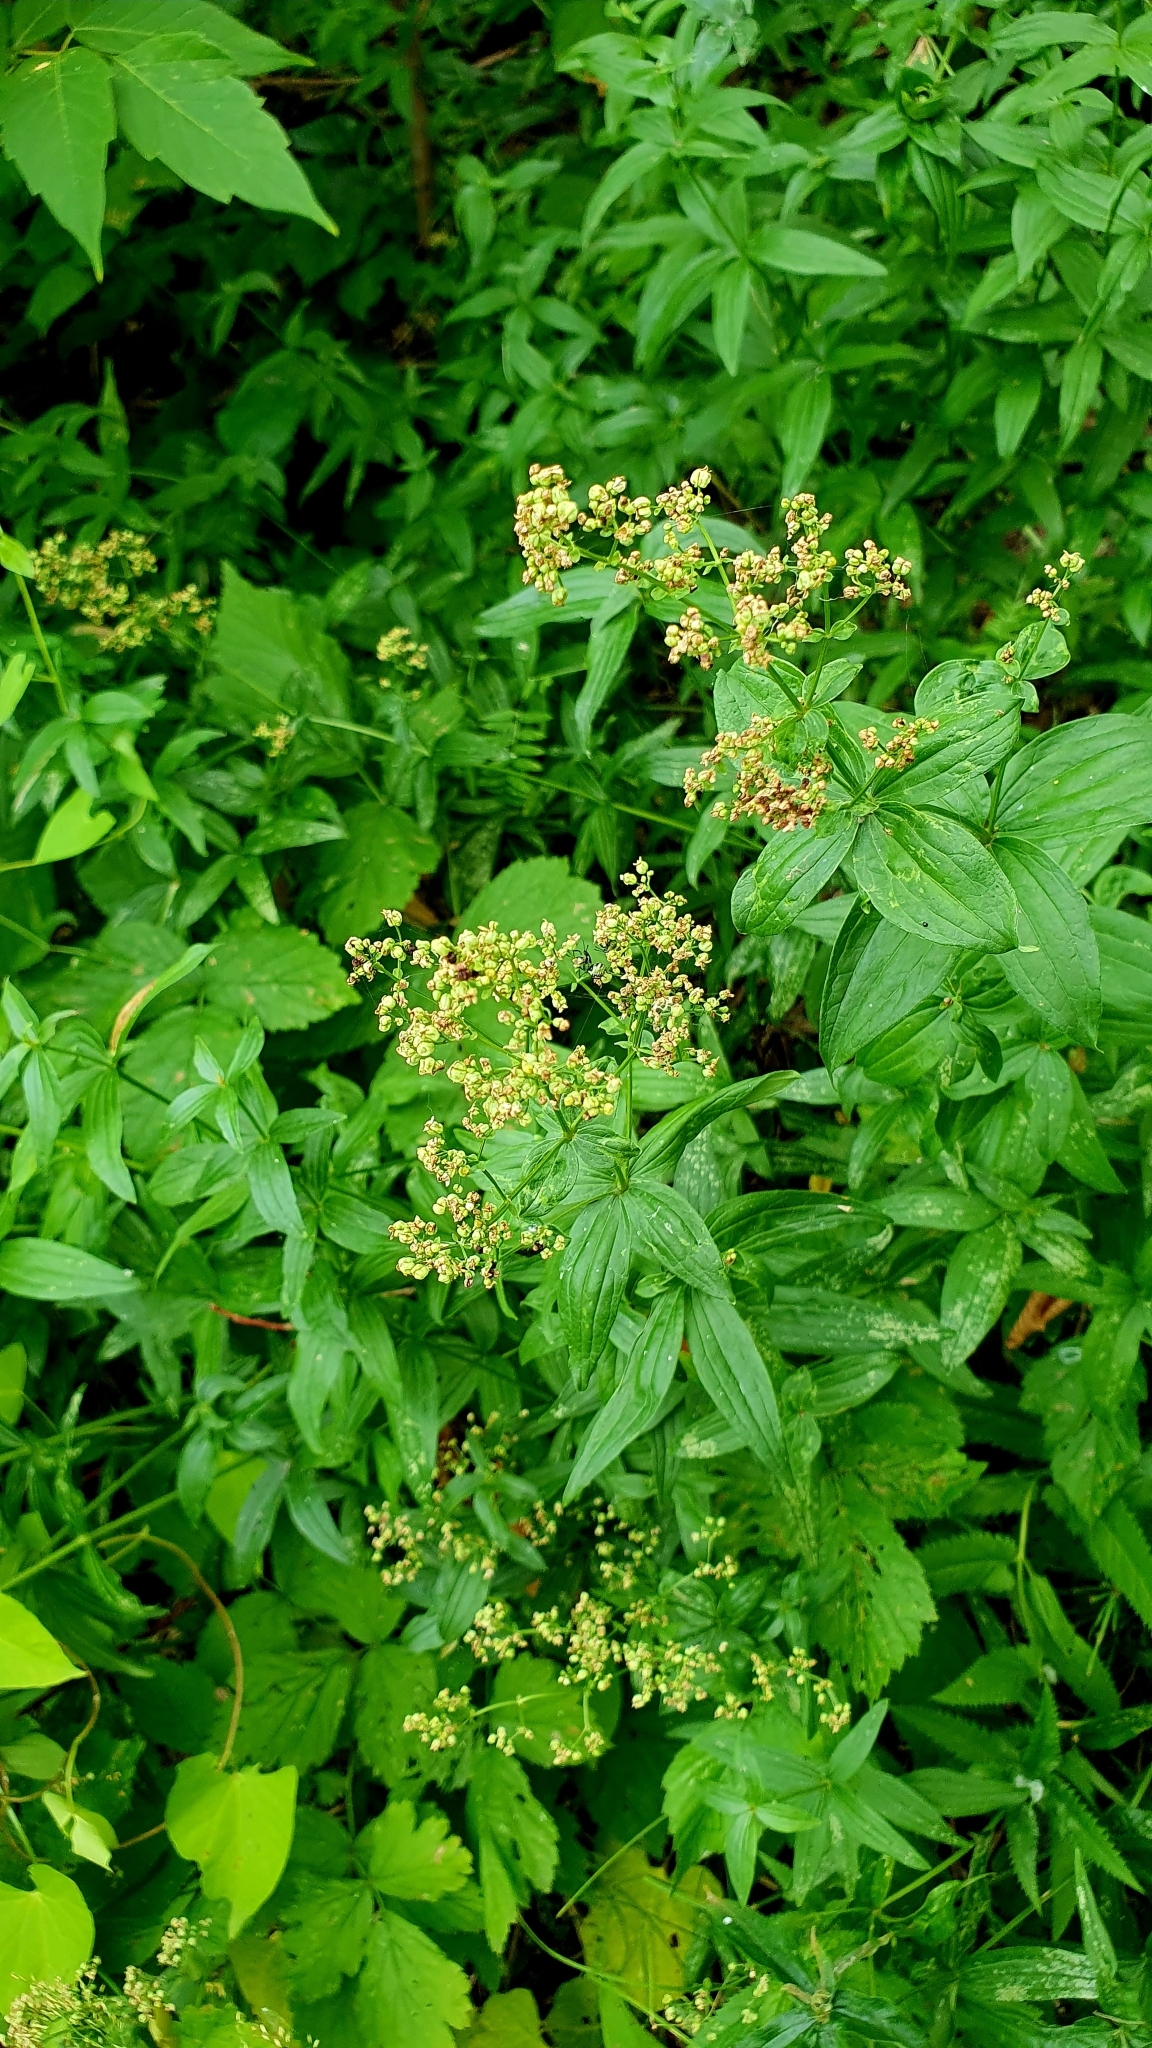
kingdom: Plantae
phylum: Tracheophyta
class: Magnoliopsida
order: Gentianales
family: Rubiaceae
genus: Galium
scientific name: Galium rubioides
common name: European bedstraw
